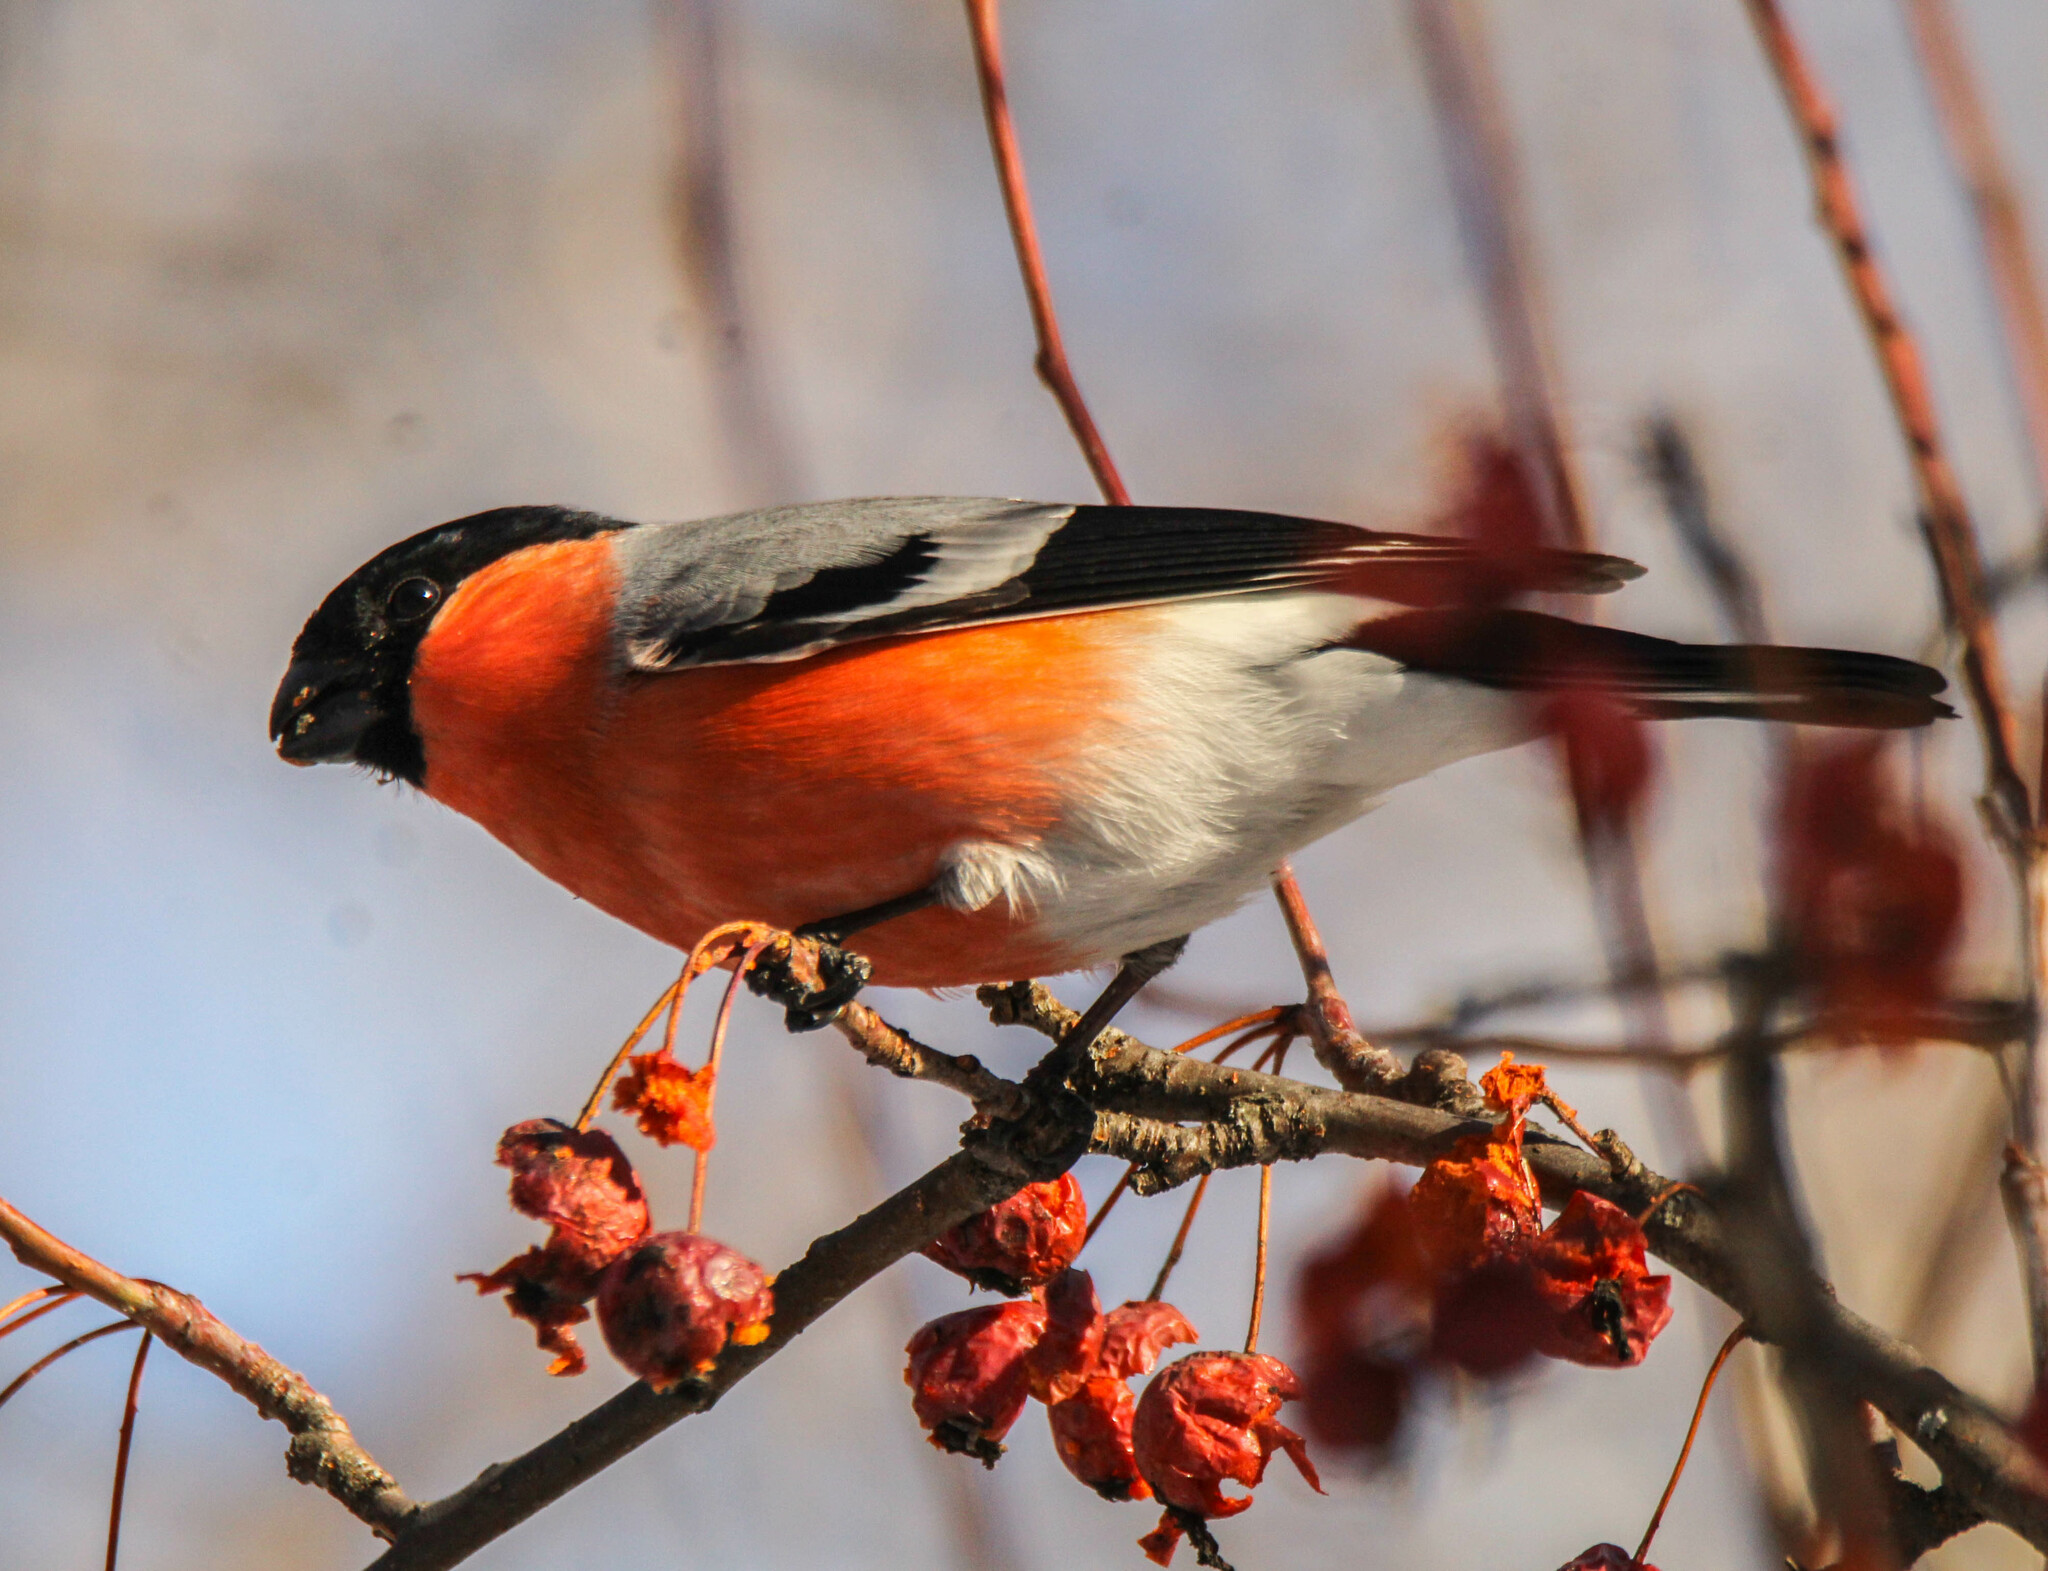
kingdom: Animalia
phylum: Chordata
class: Aves
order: Passeriformes
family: Fringillidae
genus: Pyrrhula
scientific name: Pyrrhula pyrrhula
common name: Eurasian bullfinch
